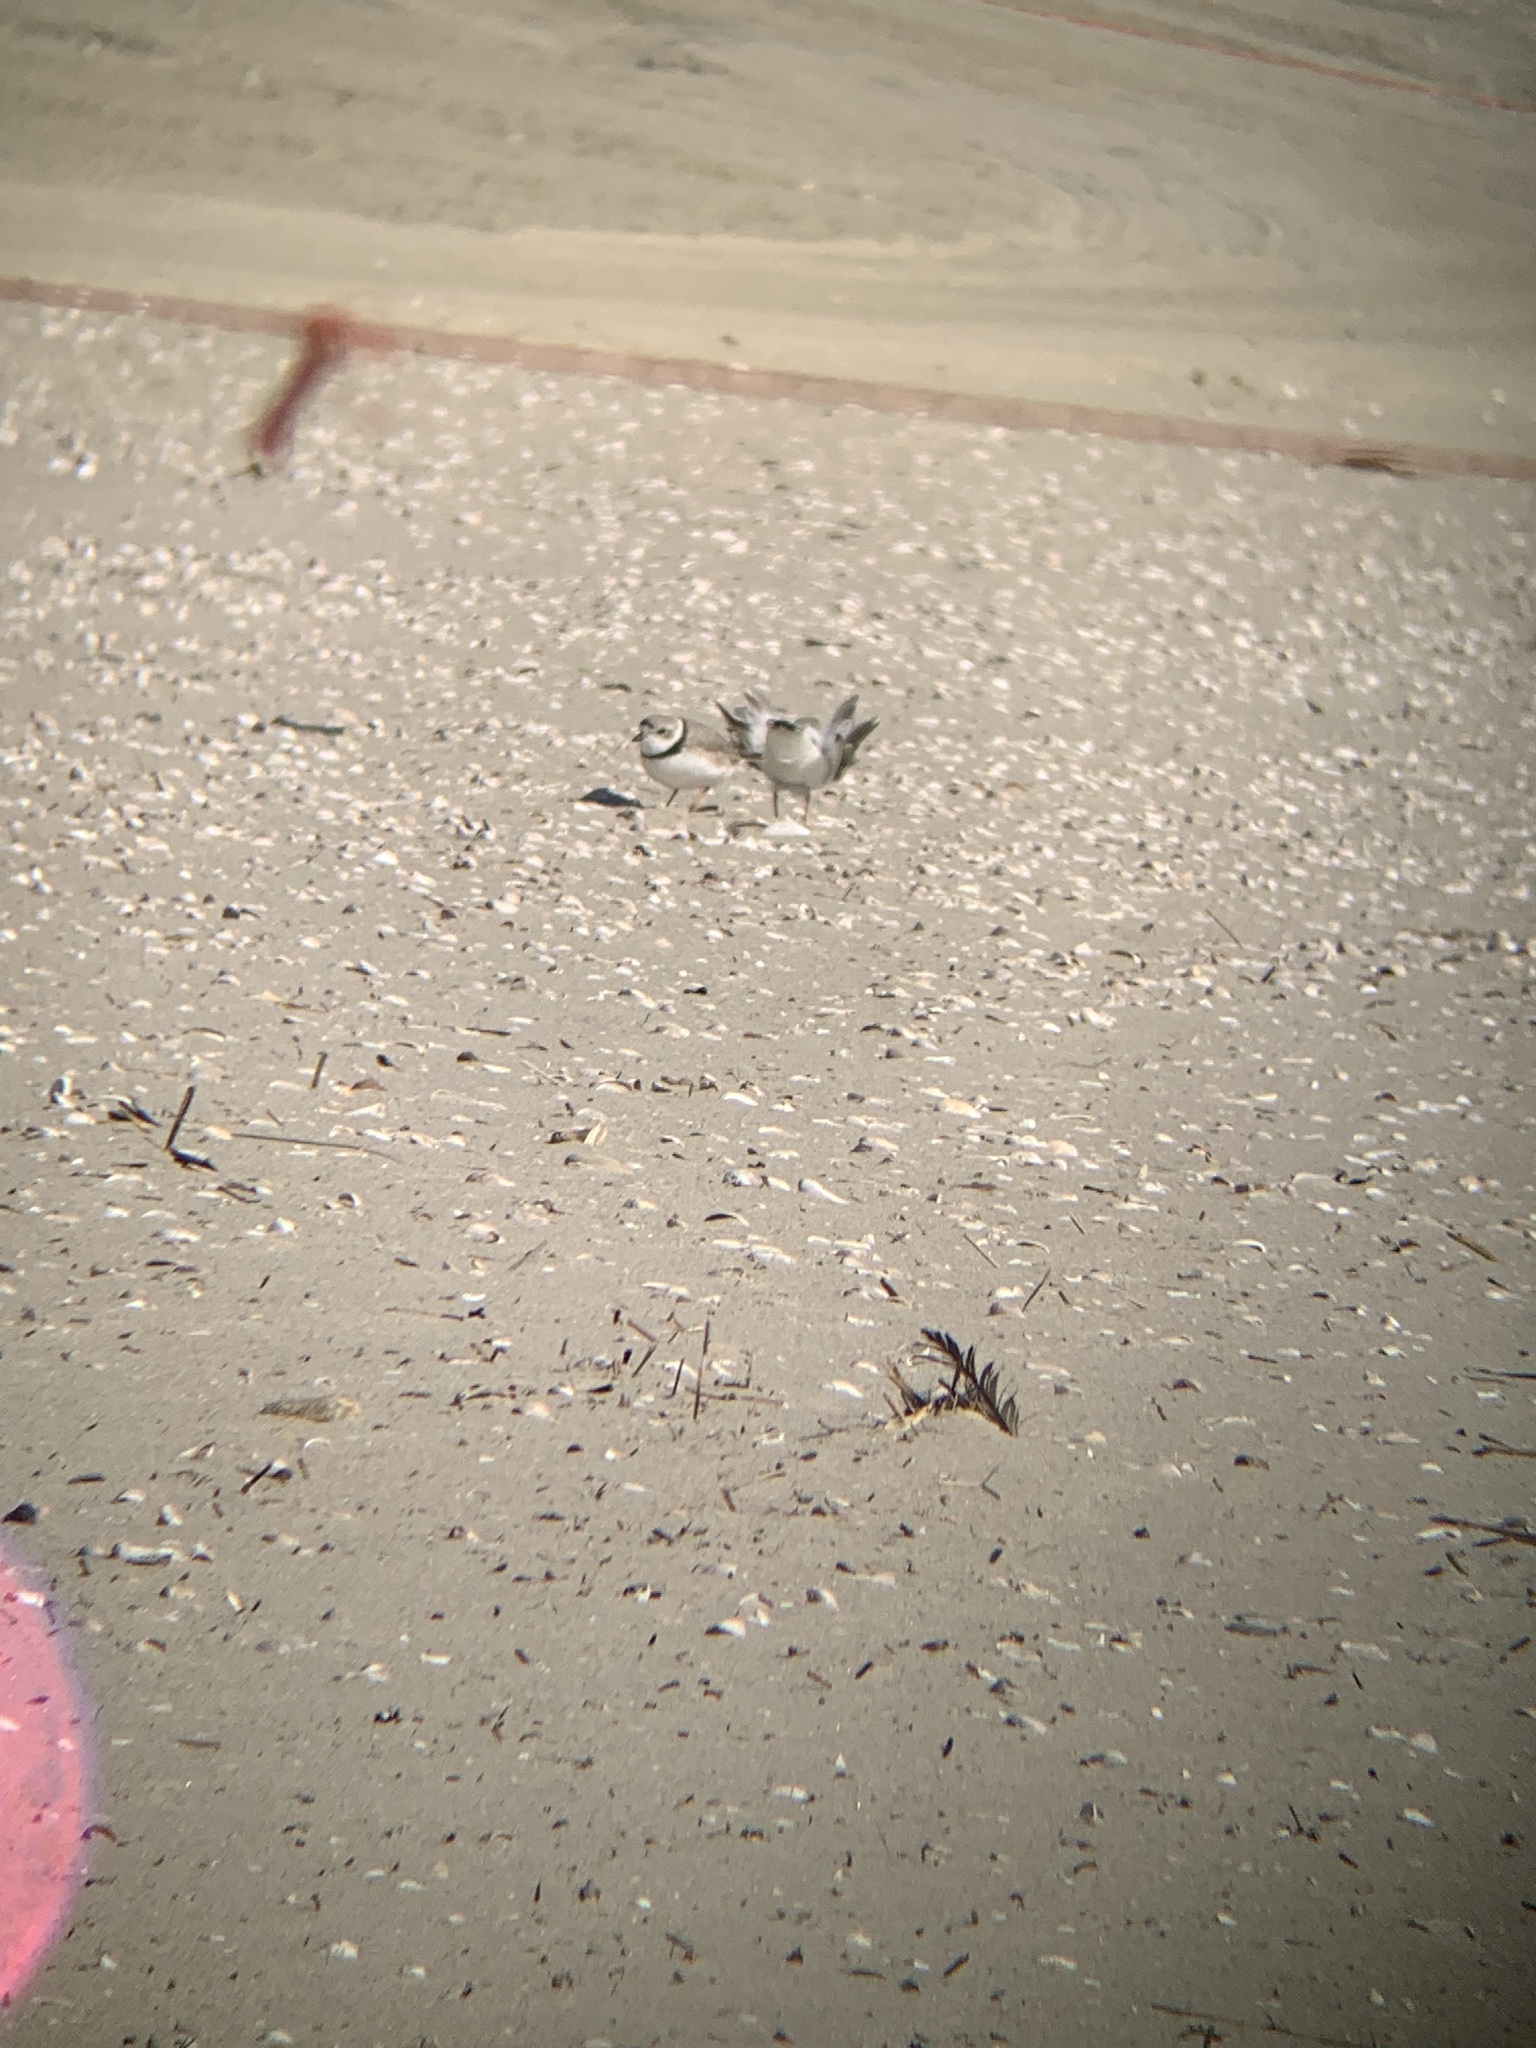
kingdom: Animalia
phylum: Chordata
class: Aves
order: Charadriiformes
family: Charadriidae
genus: Charadrius
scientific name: Charadrius melodus
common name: Piping plover
